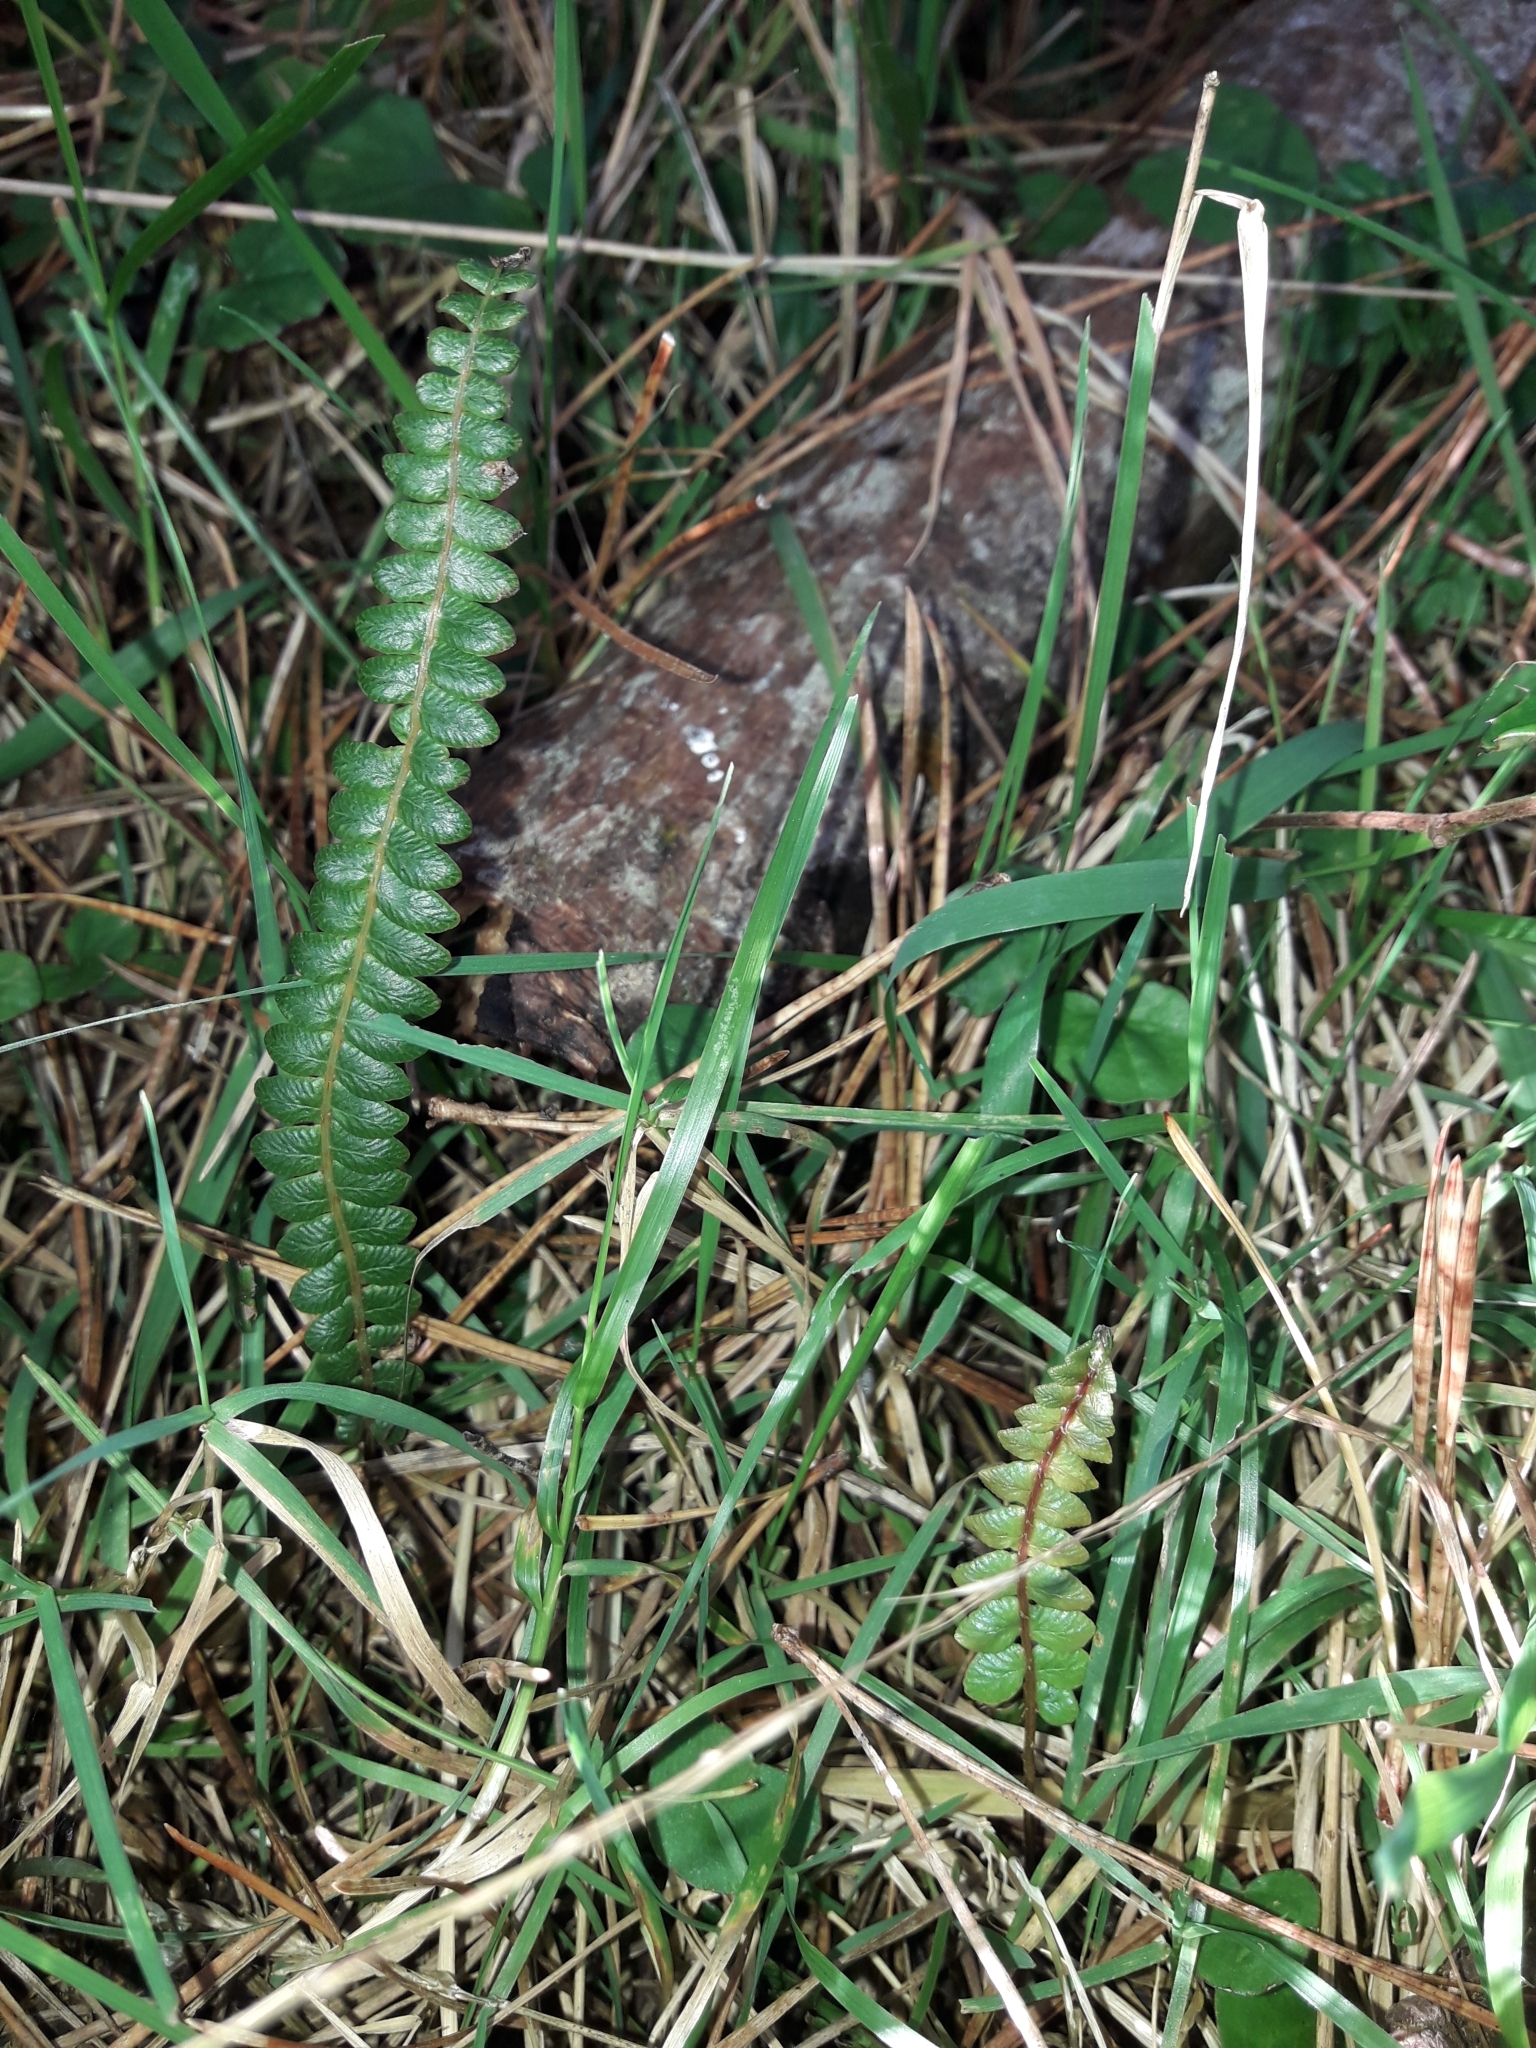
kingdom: Plantae
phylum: Tracheophyta
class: Polypodiopsida
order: Polypodiales
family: Blechnaceae
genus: Austroblechnum
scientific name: Austroblechnum penna-marina
